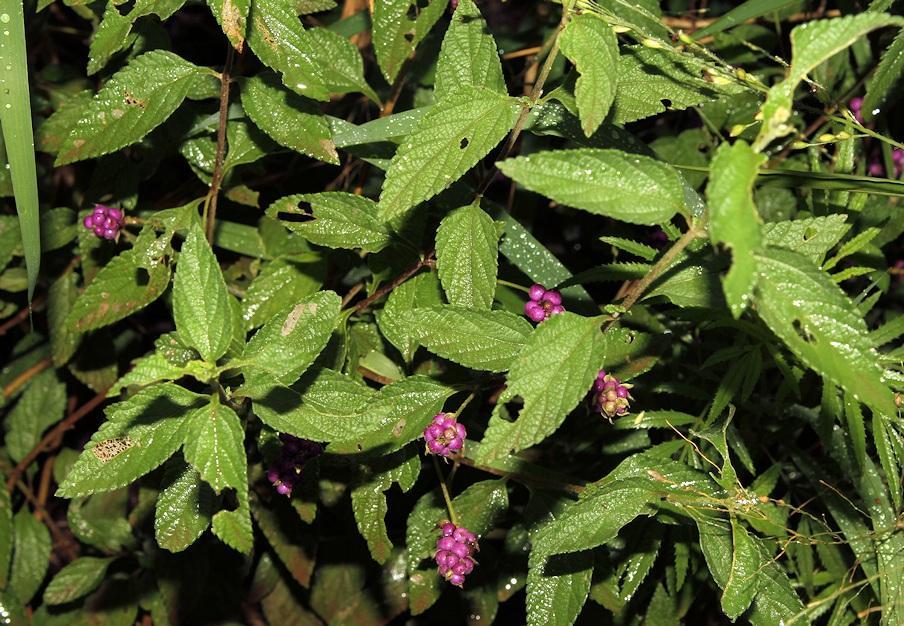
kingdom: Plantae
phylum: Tracheophyta
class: Magnoliopsida
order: Lamiales
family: Verbenaceae
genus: Lantana
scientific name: Lantana rugosa
